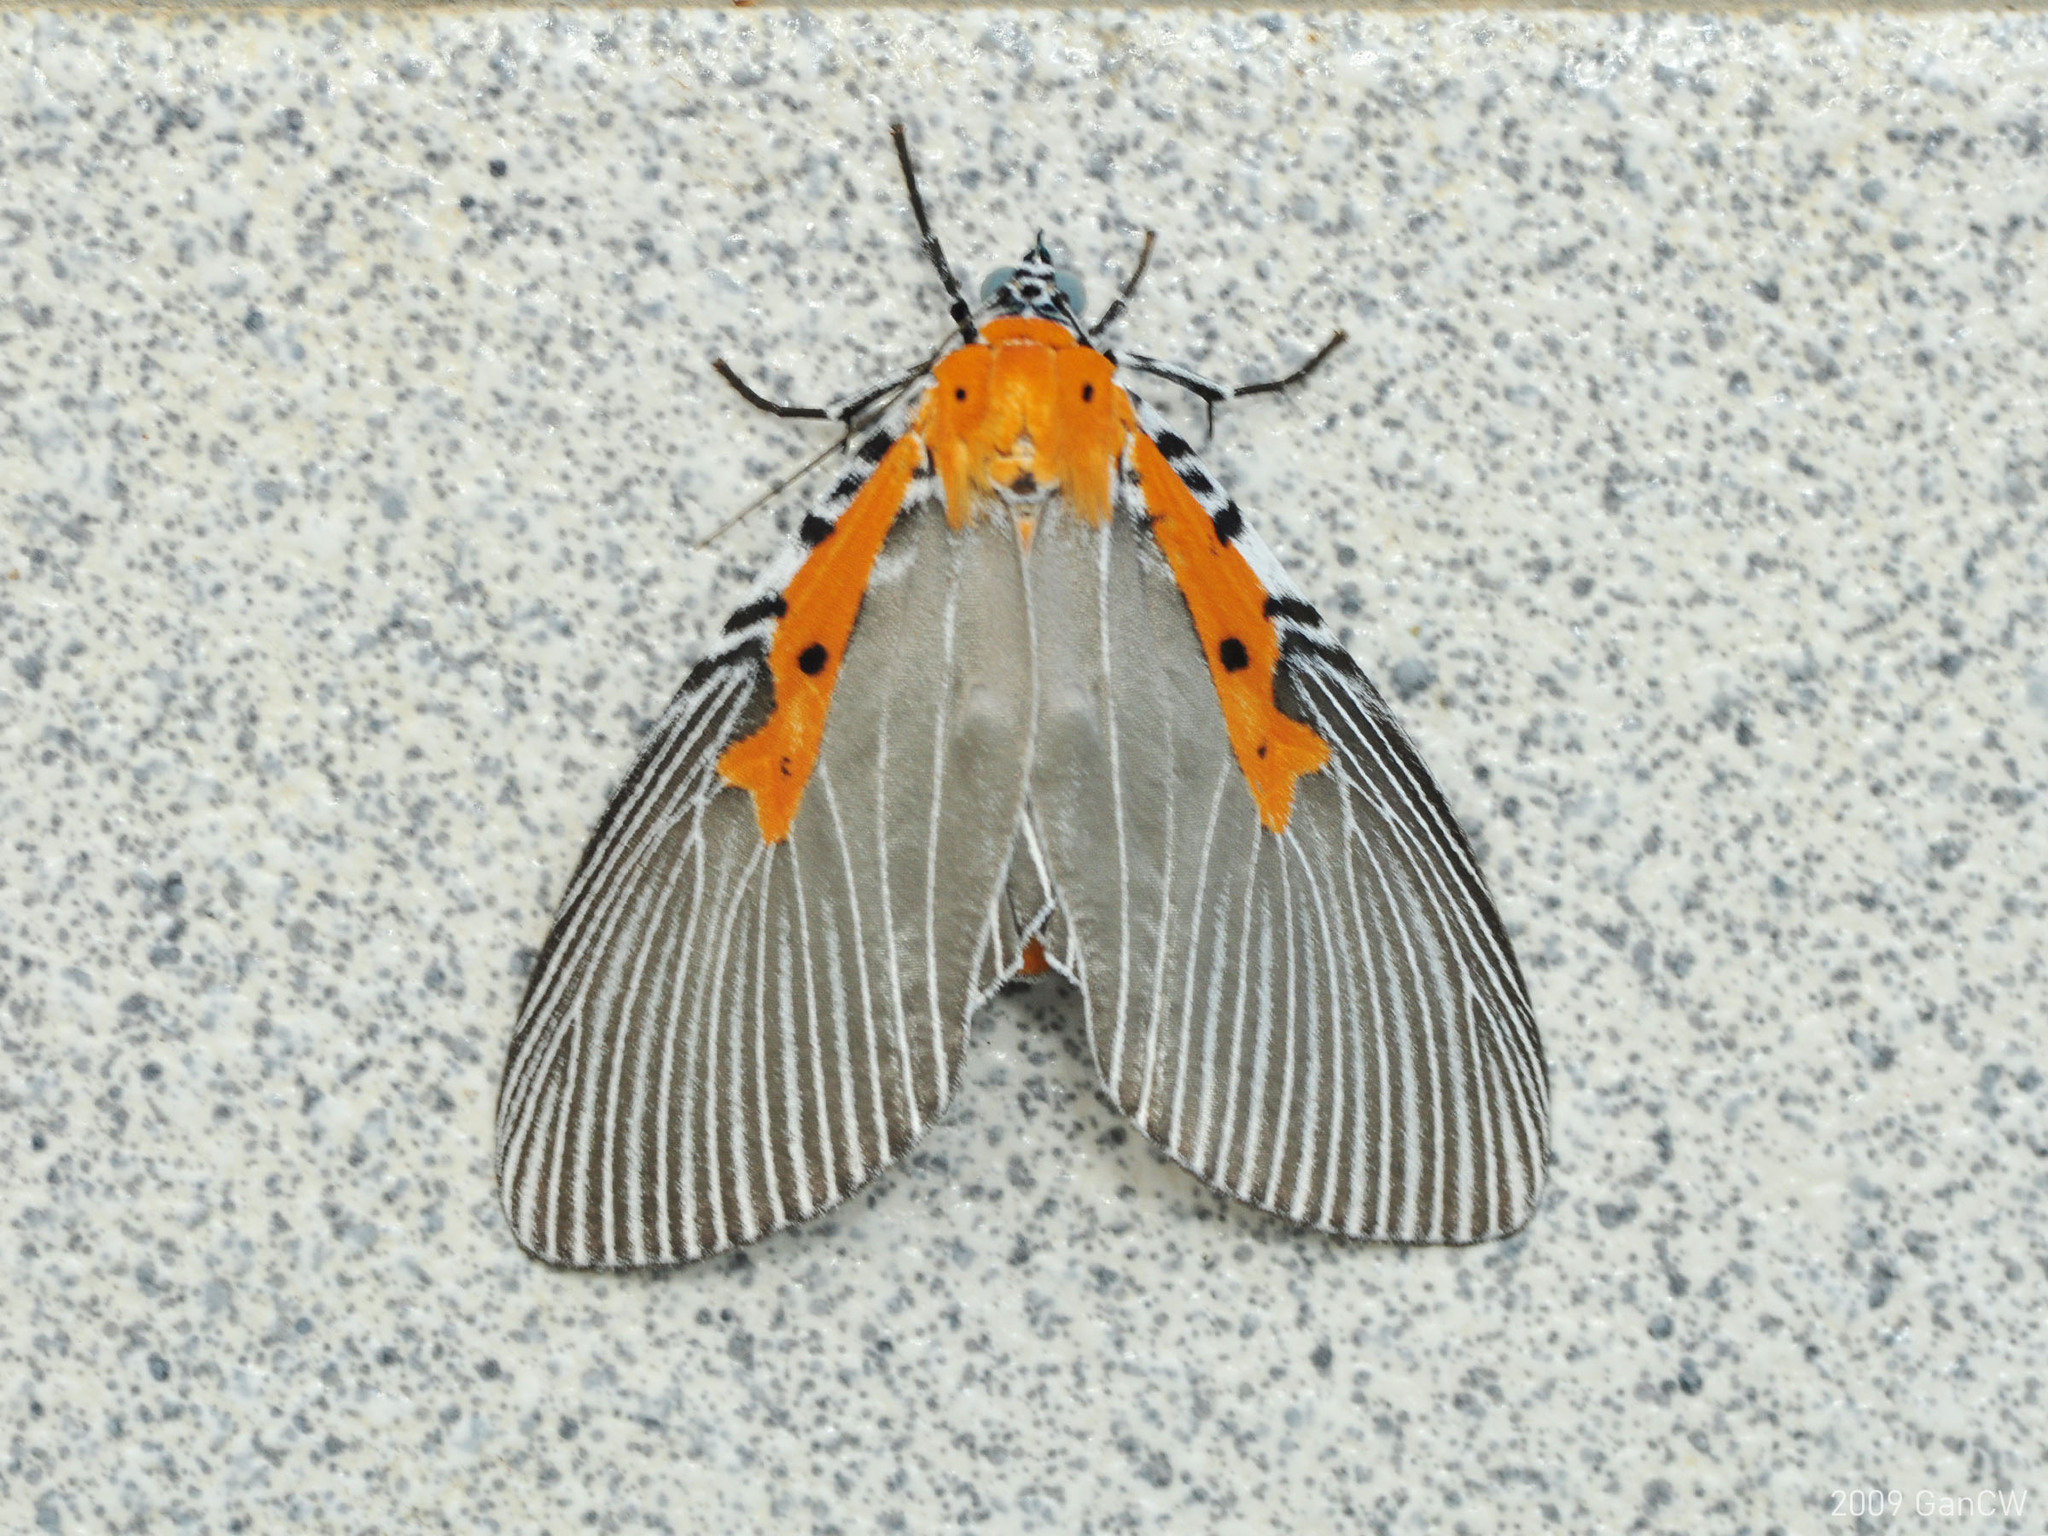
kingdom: Animalia
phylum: Arthropoda
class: Insecta
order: Lepidoptera
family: Erebidae
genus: Euplocia
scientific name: Euplocia membliaria
